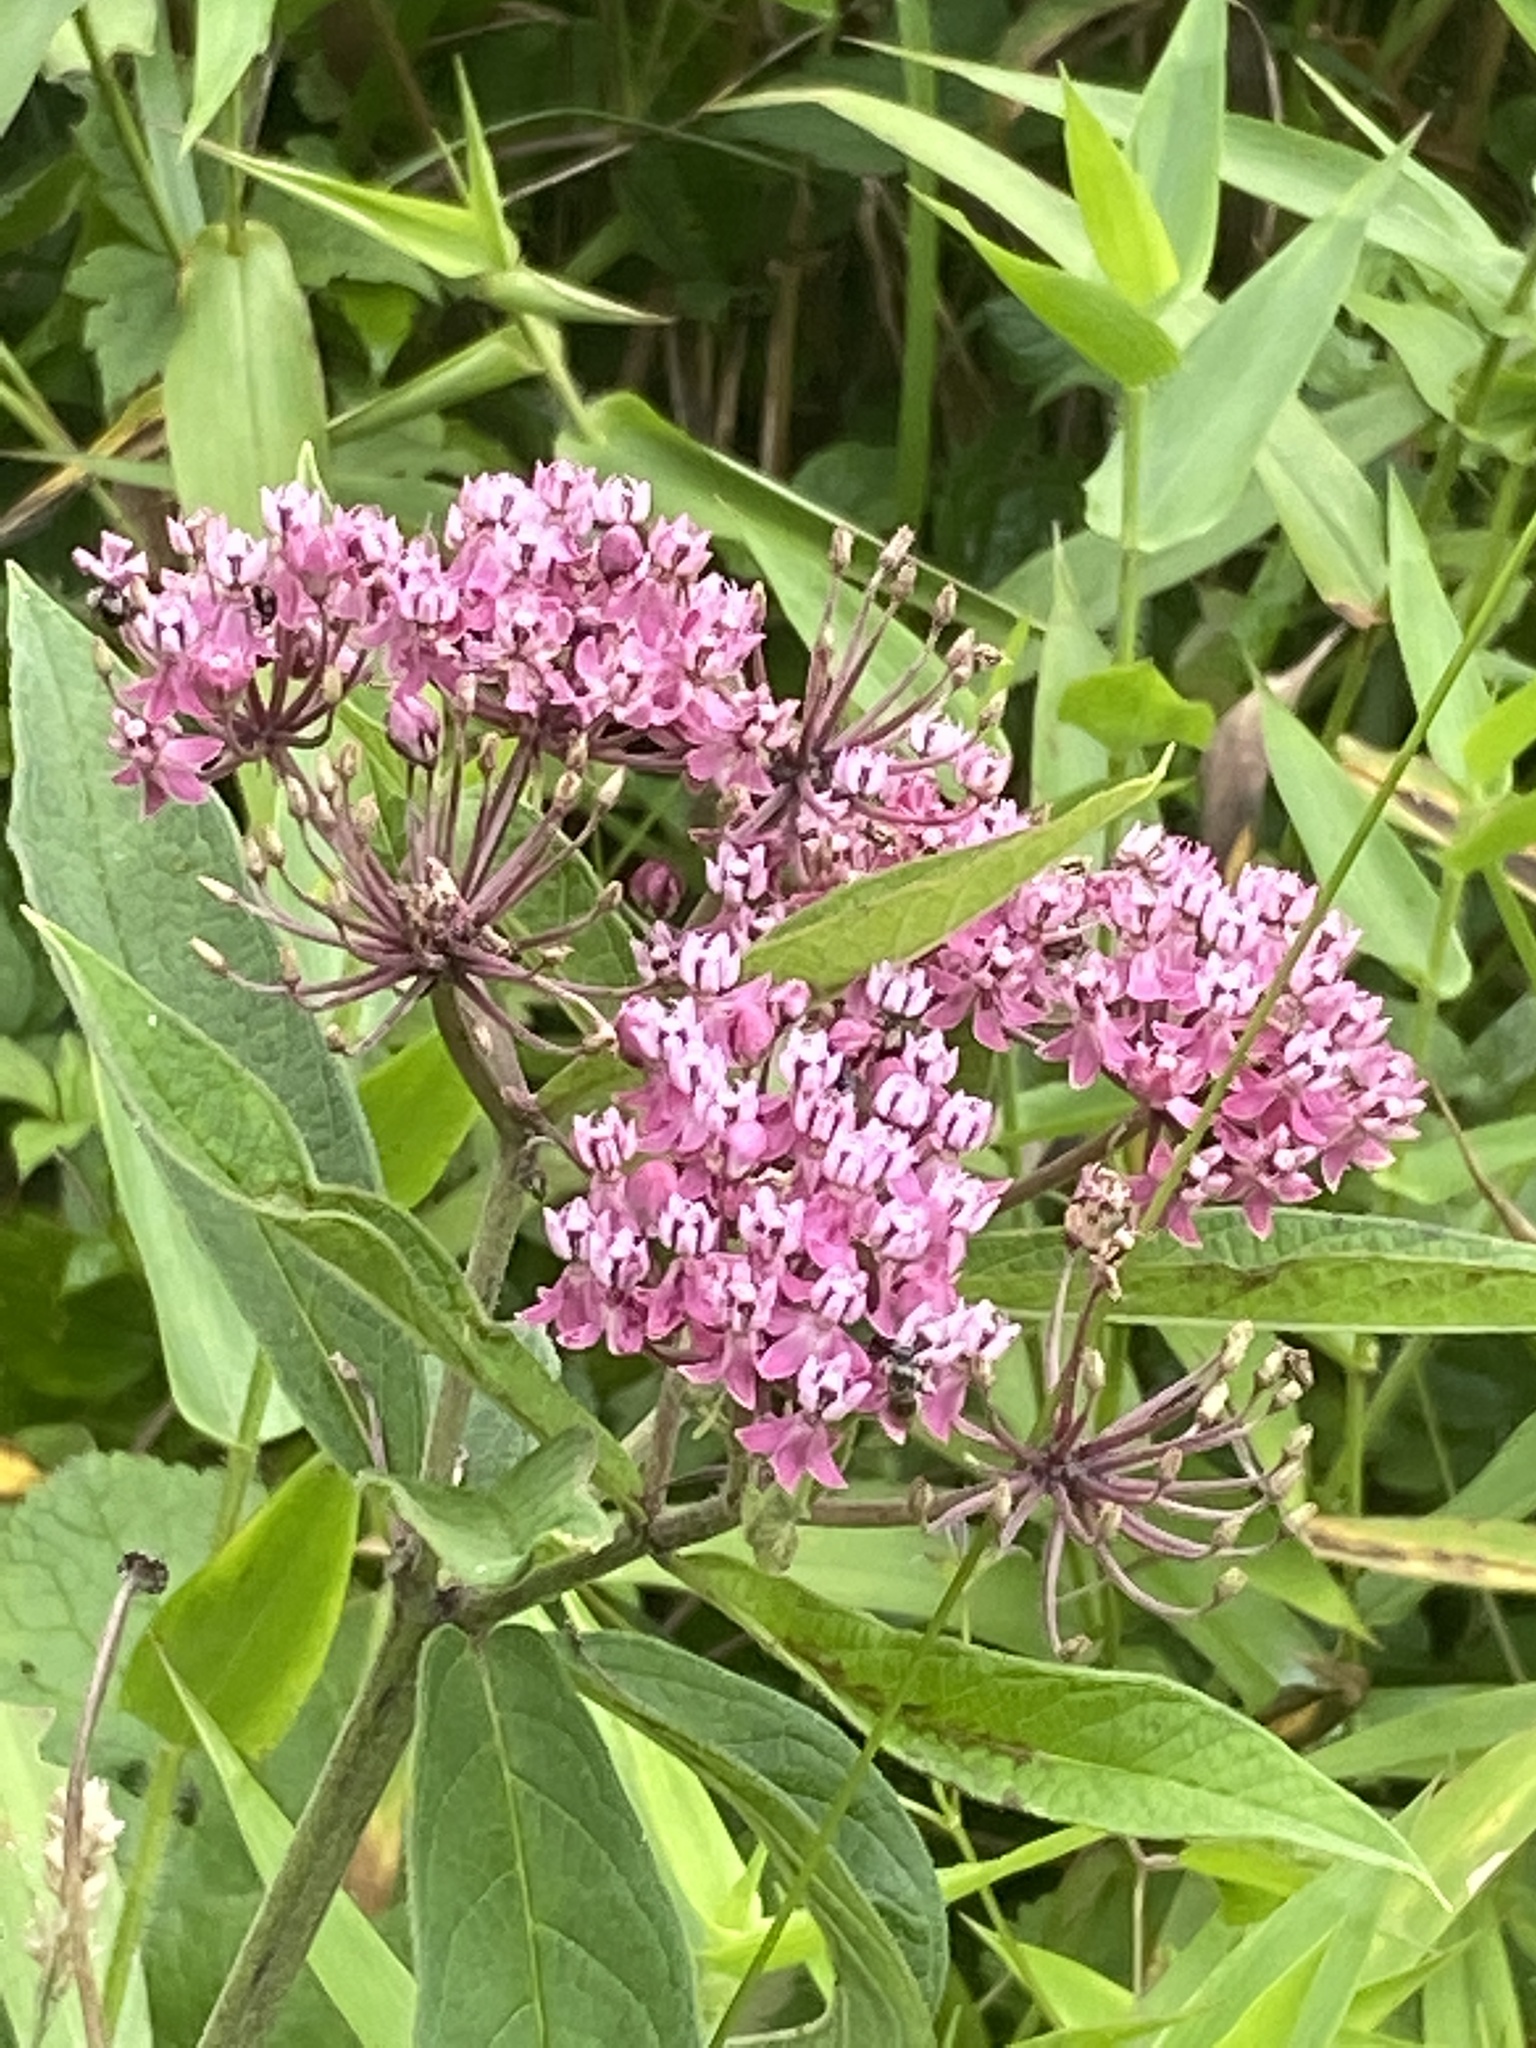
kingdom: Plantae
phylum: Tracheophyta
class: Magnoliopsida
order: Gentianales
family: Apocynaceae
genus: Asclepias
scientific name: Asclepias incarnata
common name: Swamp milkweed
